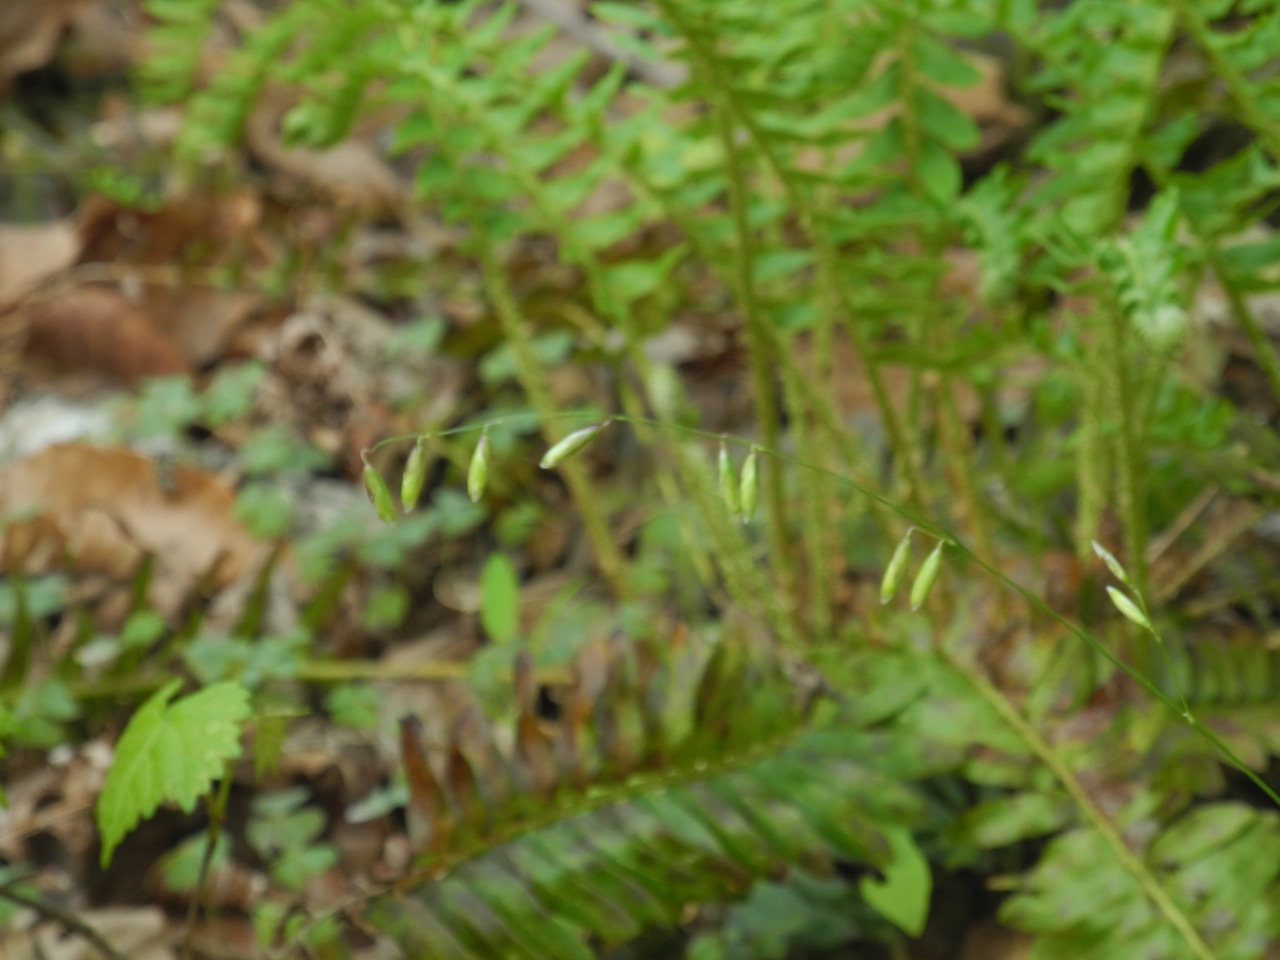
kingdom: Plantae
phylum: Tracheophyta
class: Liliopsida
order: Poales
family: Poaceae
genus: Melica
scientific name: Melica mutica
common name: Two-flower melic
